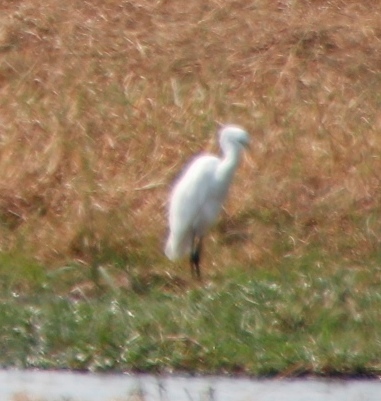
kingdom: Animalia
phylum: Chordata
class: Aves
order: Pelecaniformes
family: Ardeidae
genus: Ardea
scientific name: Ardea alba
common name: Great egret
